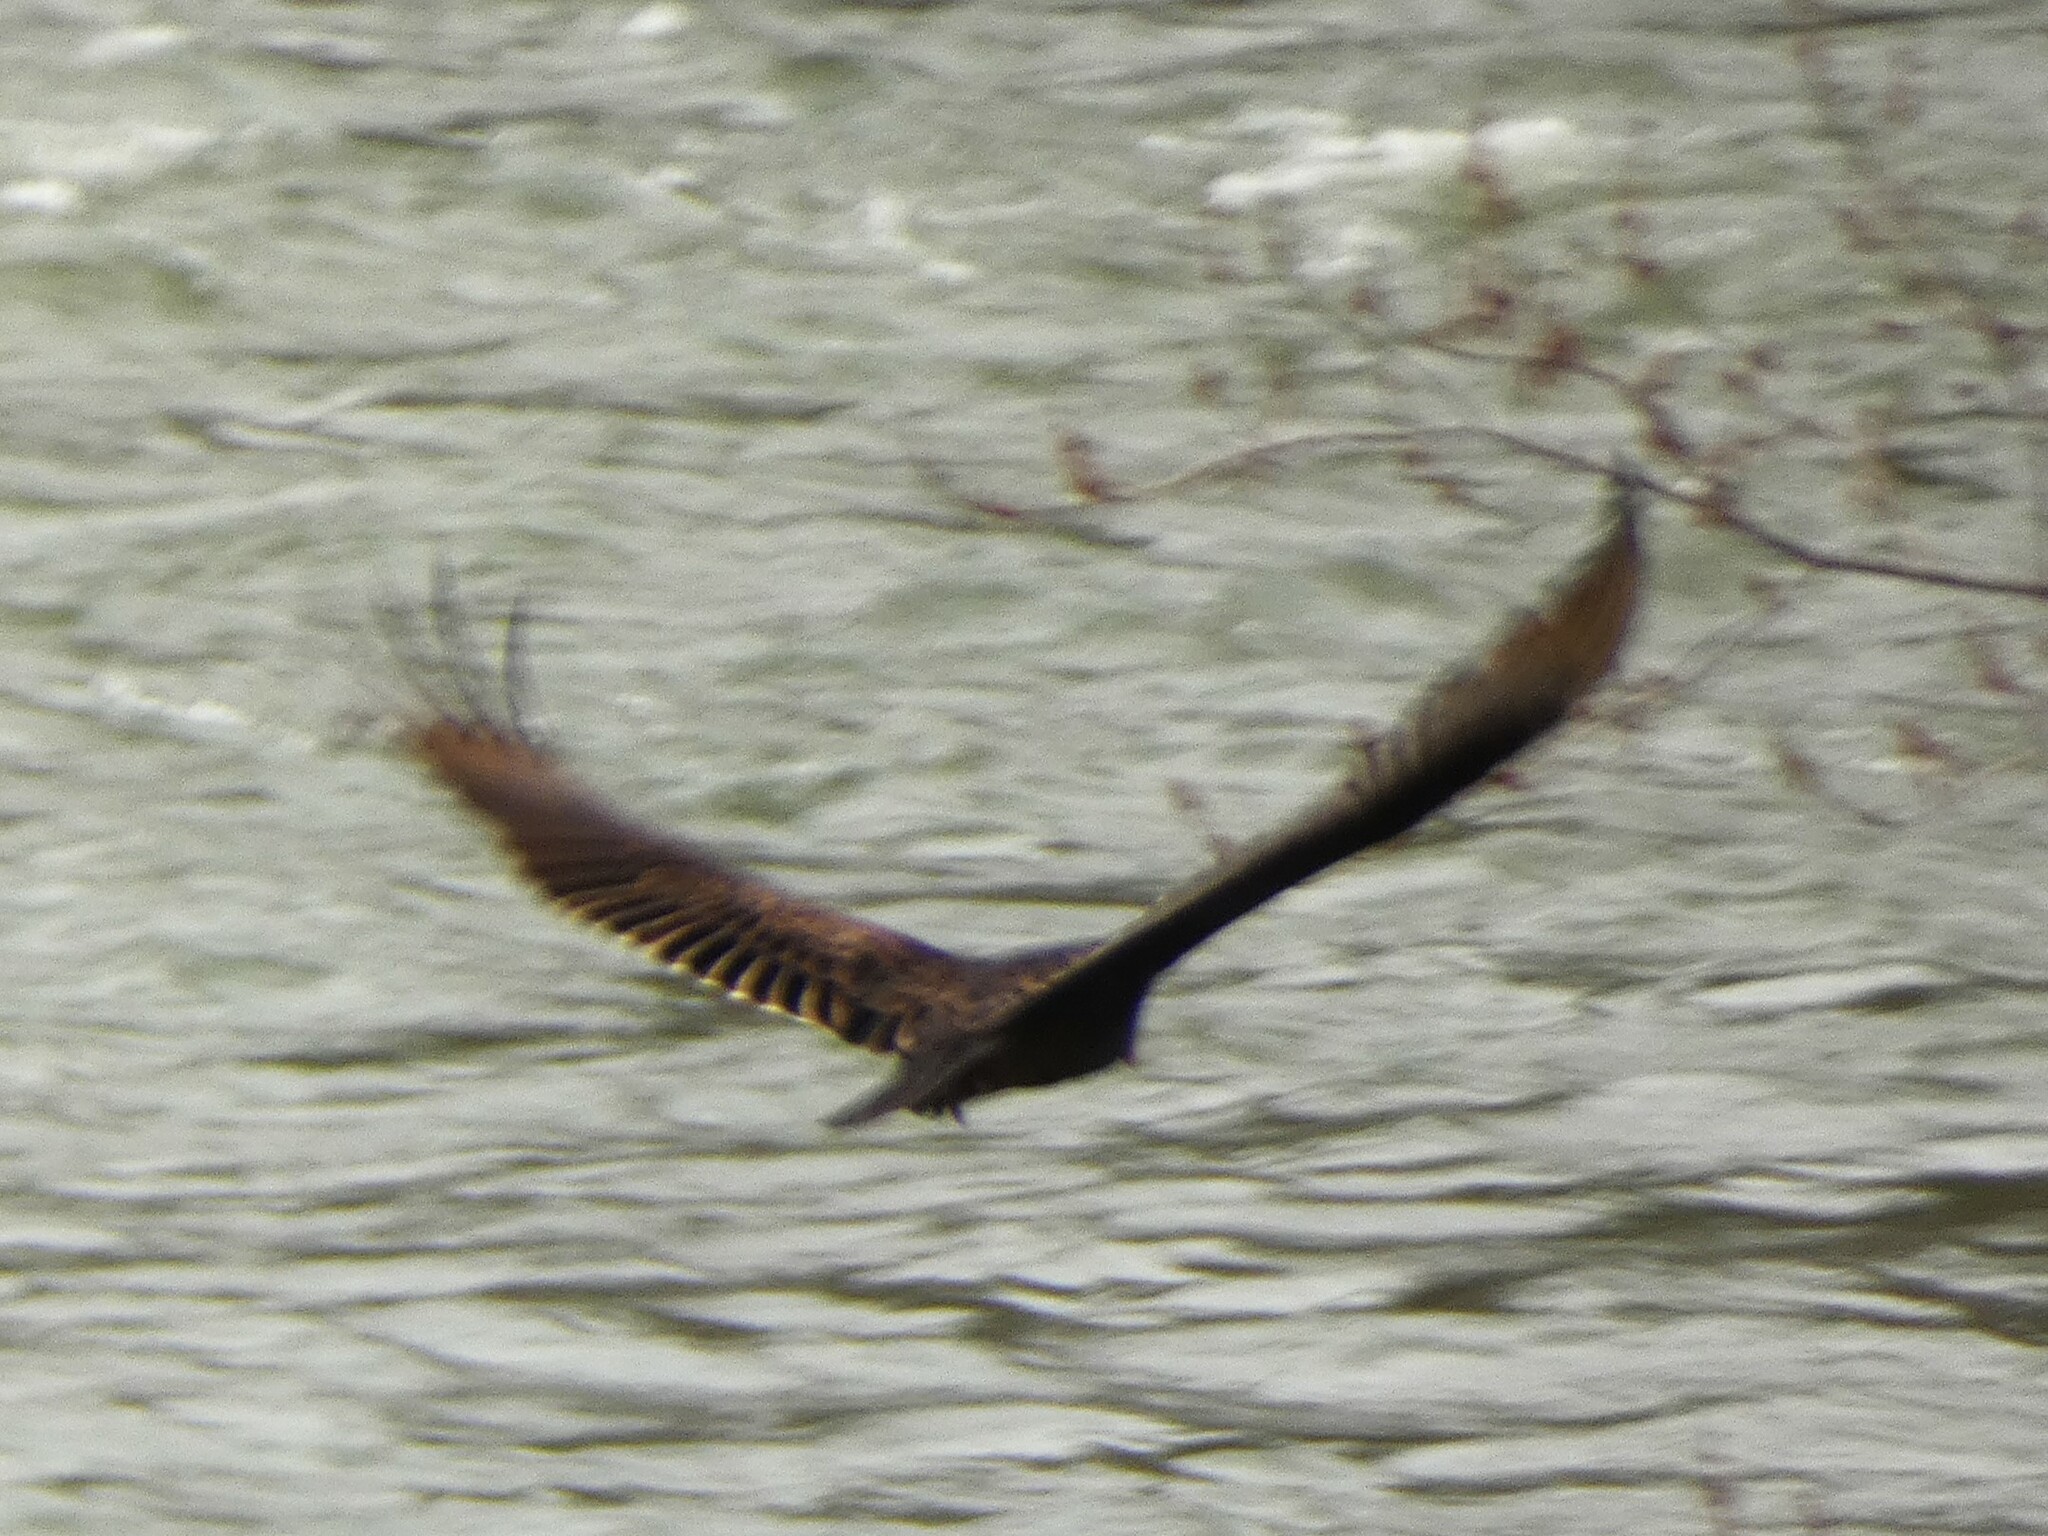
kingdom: Animalia
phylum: Chordata
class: Aves
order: Accipitriformes
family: Cathartidae
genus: Cathartes
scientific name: Cathartes aura
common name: Turkey vulture
